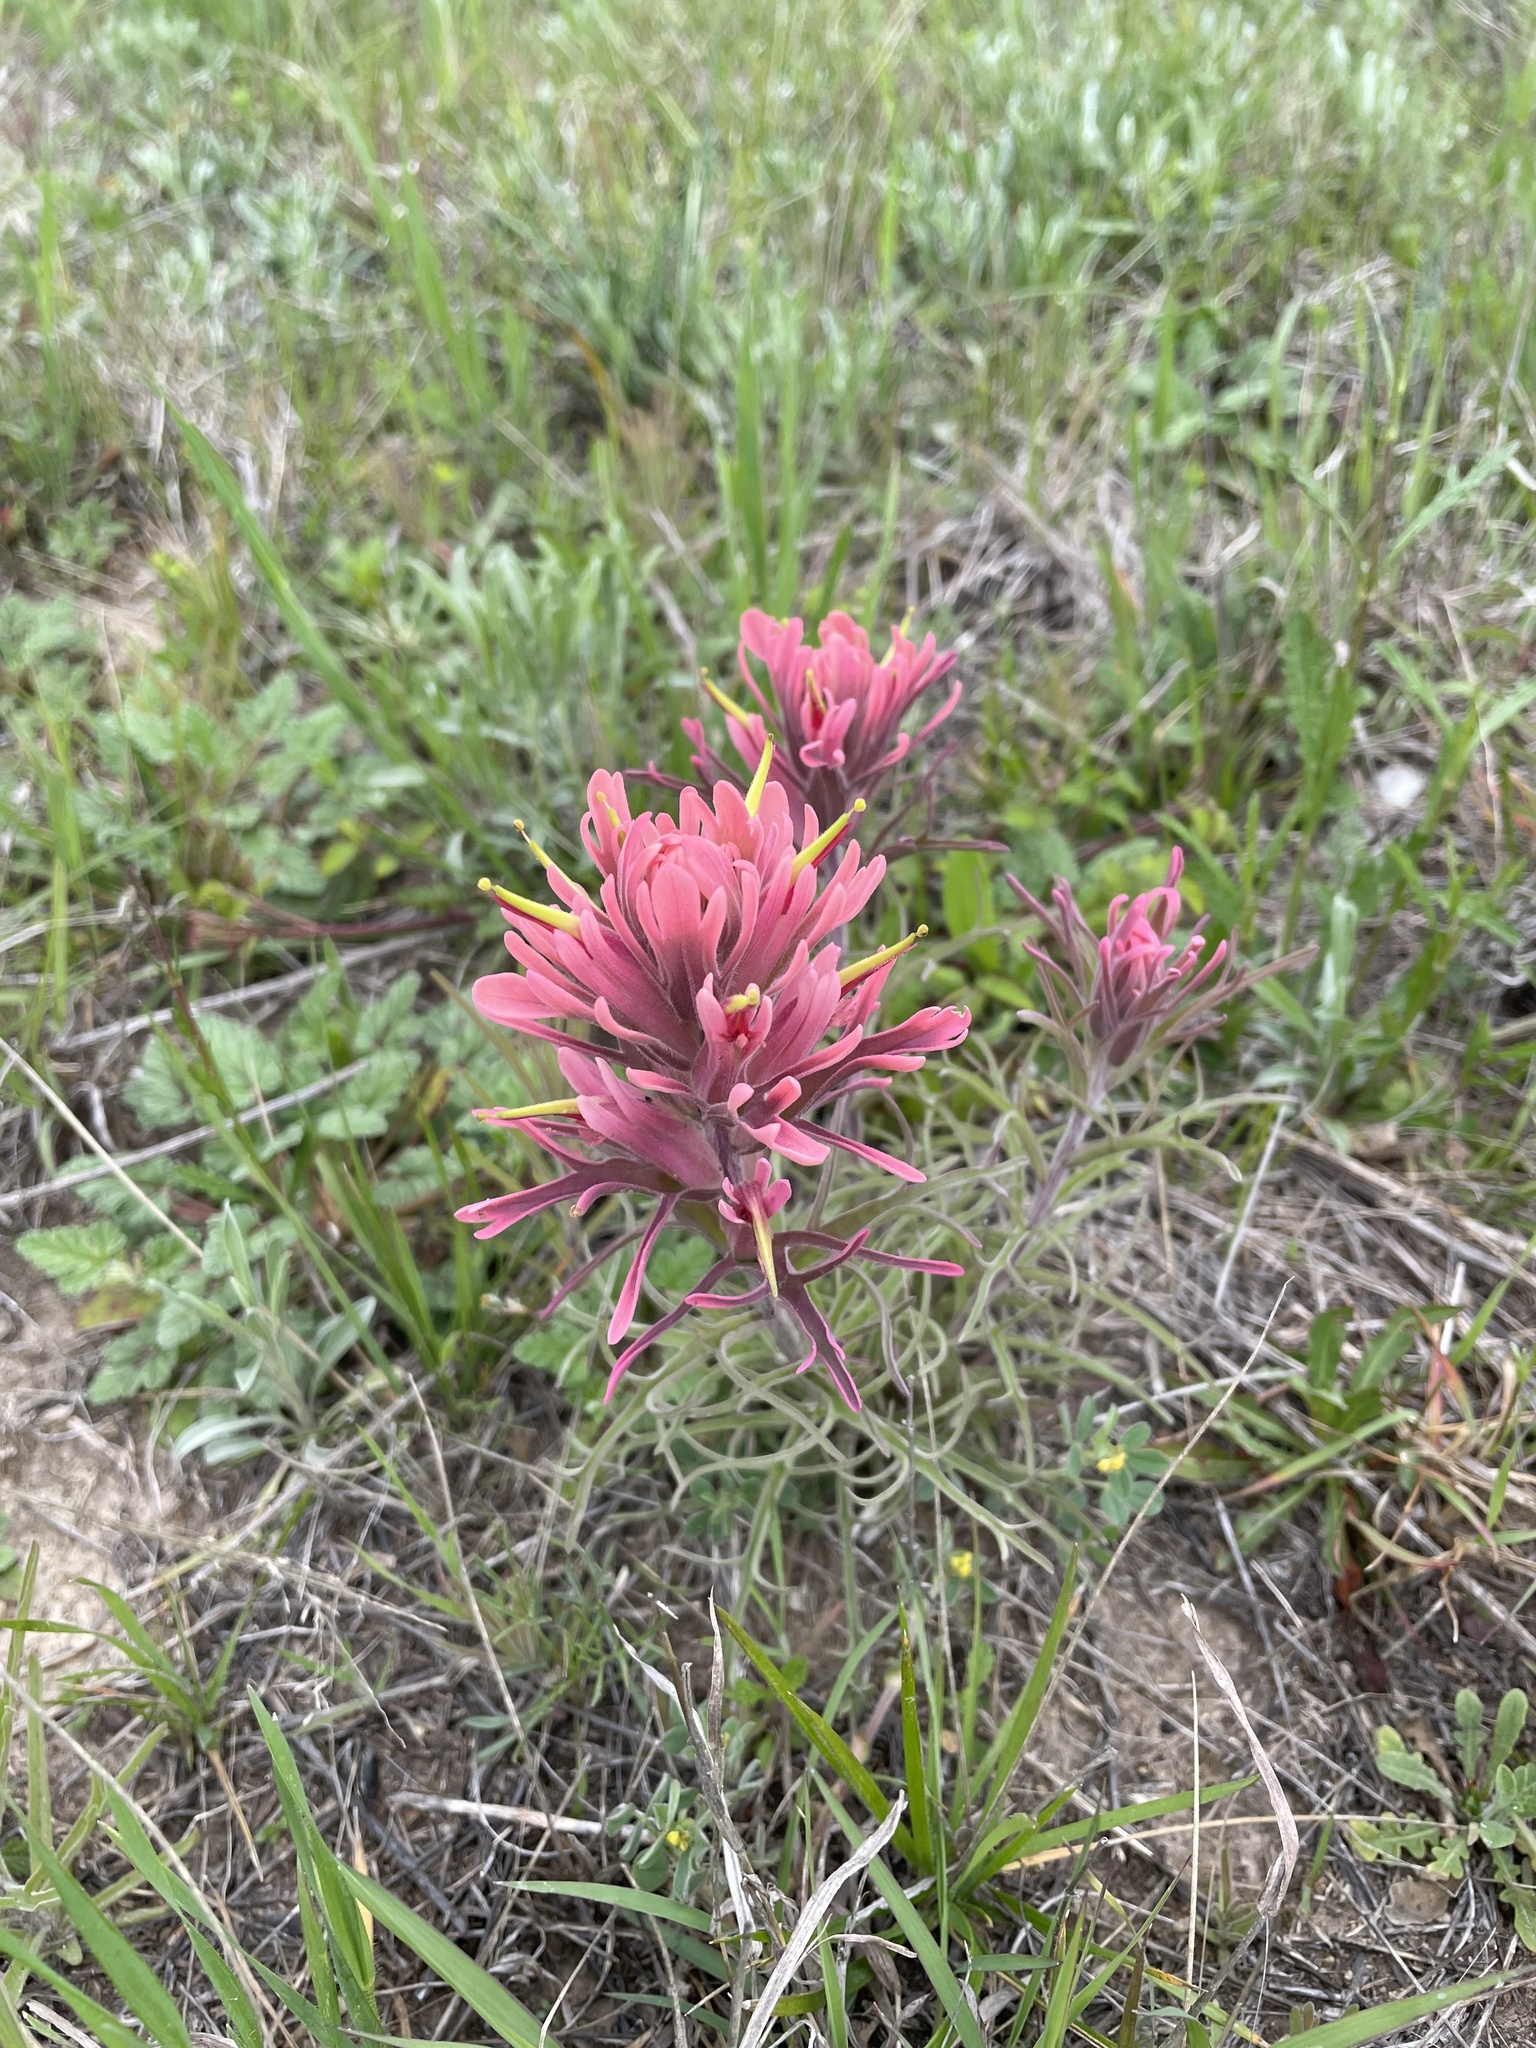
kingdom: Plantae
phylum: Tracheophyta
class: Magnoliopsida
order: Lamiales
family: Orobanchaceae
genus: Castilleja
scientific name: Castilleja purpurea
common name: Plains paintbrush
